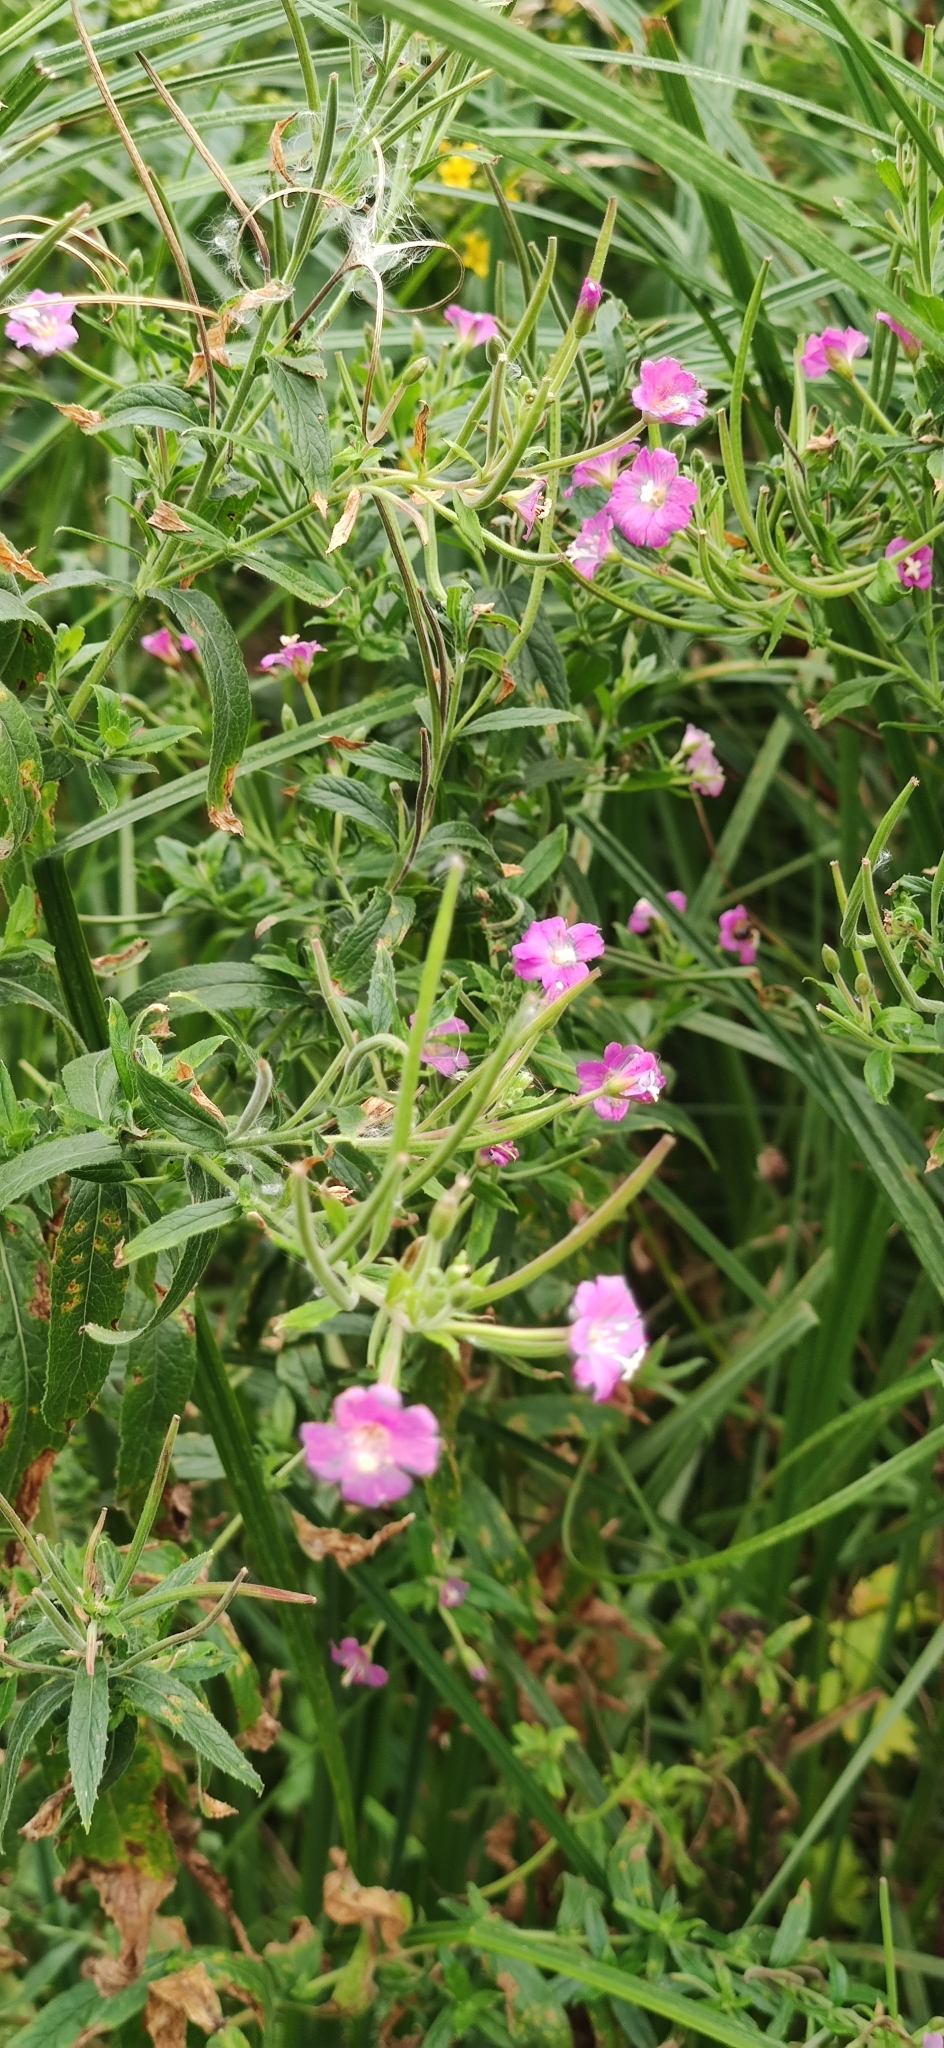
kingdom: Plantae
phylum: Tracheophyta
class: Magnoliopsida
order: Myrtales
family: Onagraceae
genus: Epilobium
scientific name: Epilobium hirsutum
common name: Great willowherb
